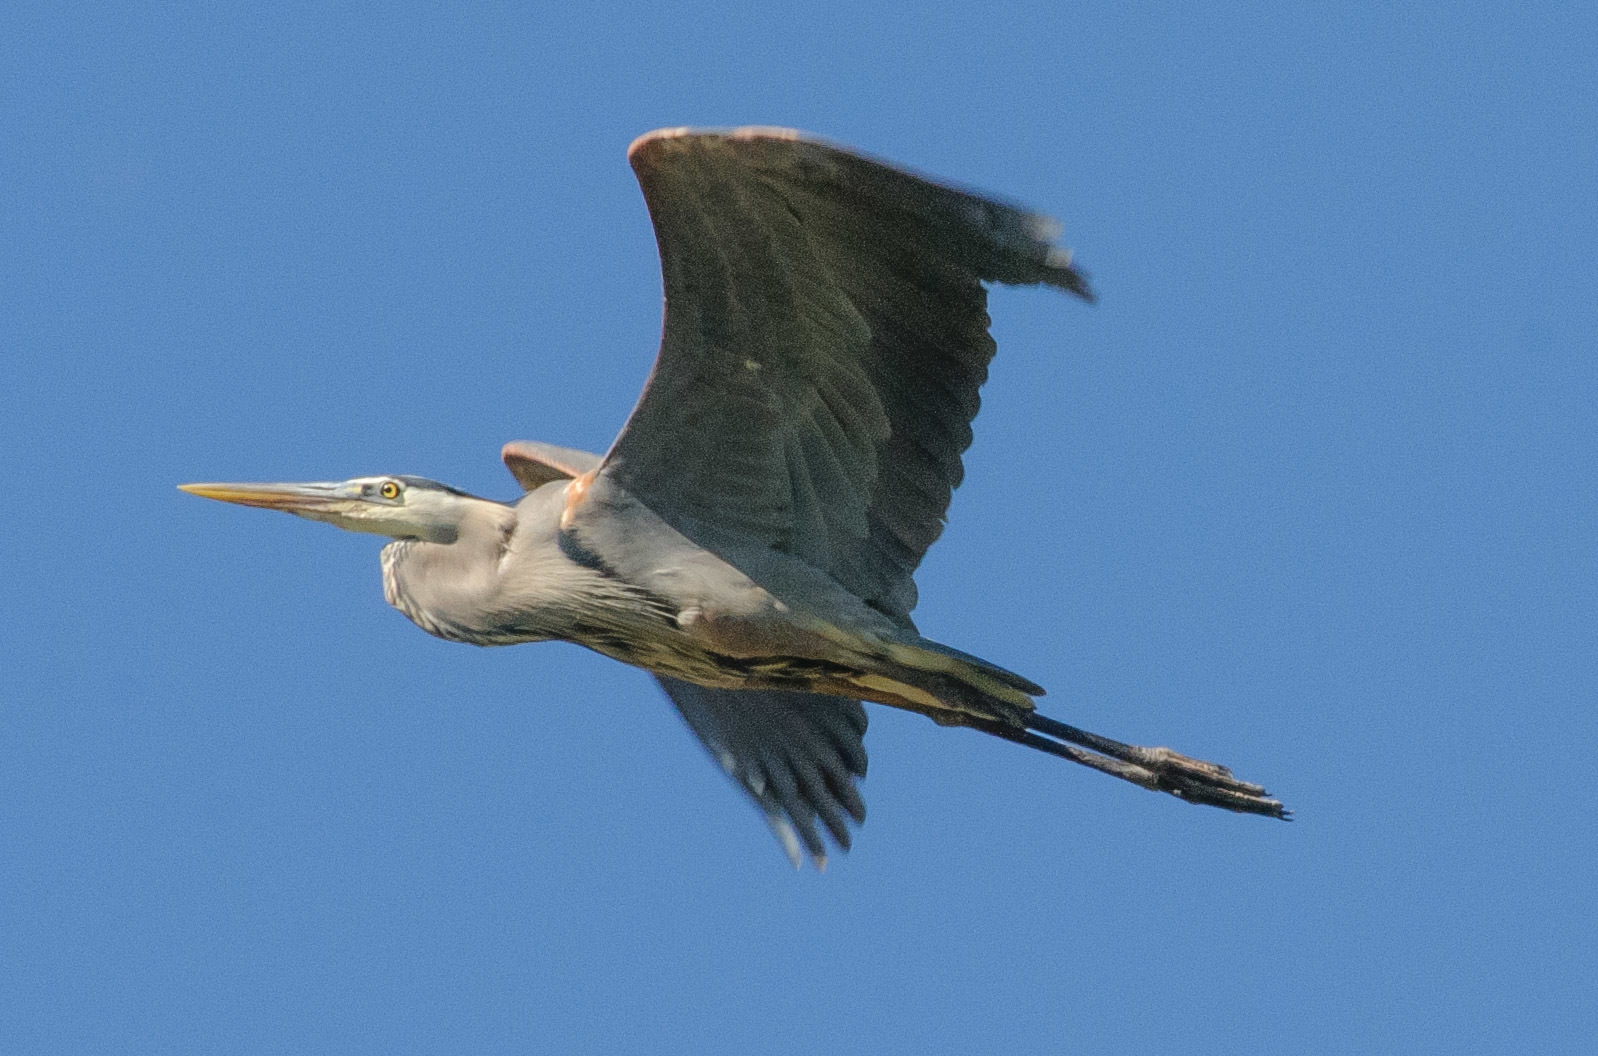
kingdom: Animalia
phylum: Chordata
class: Aves
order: Pelecaniformes
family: Ardeidae
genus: Ardea
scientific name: Ardea herodias
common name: Great blue heron
